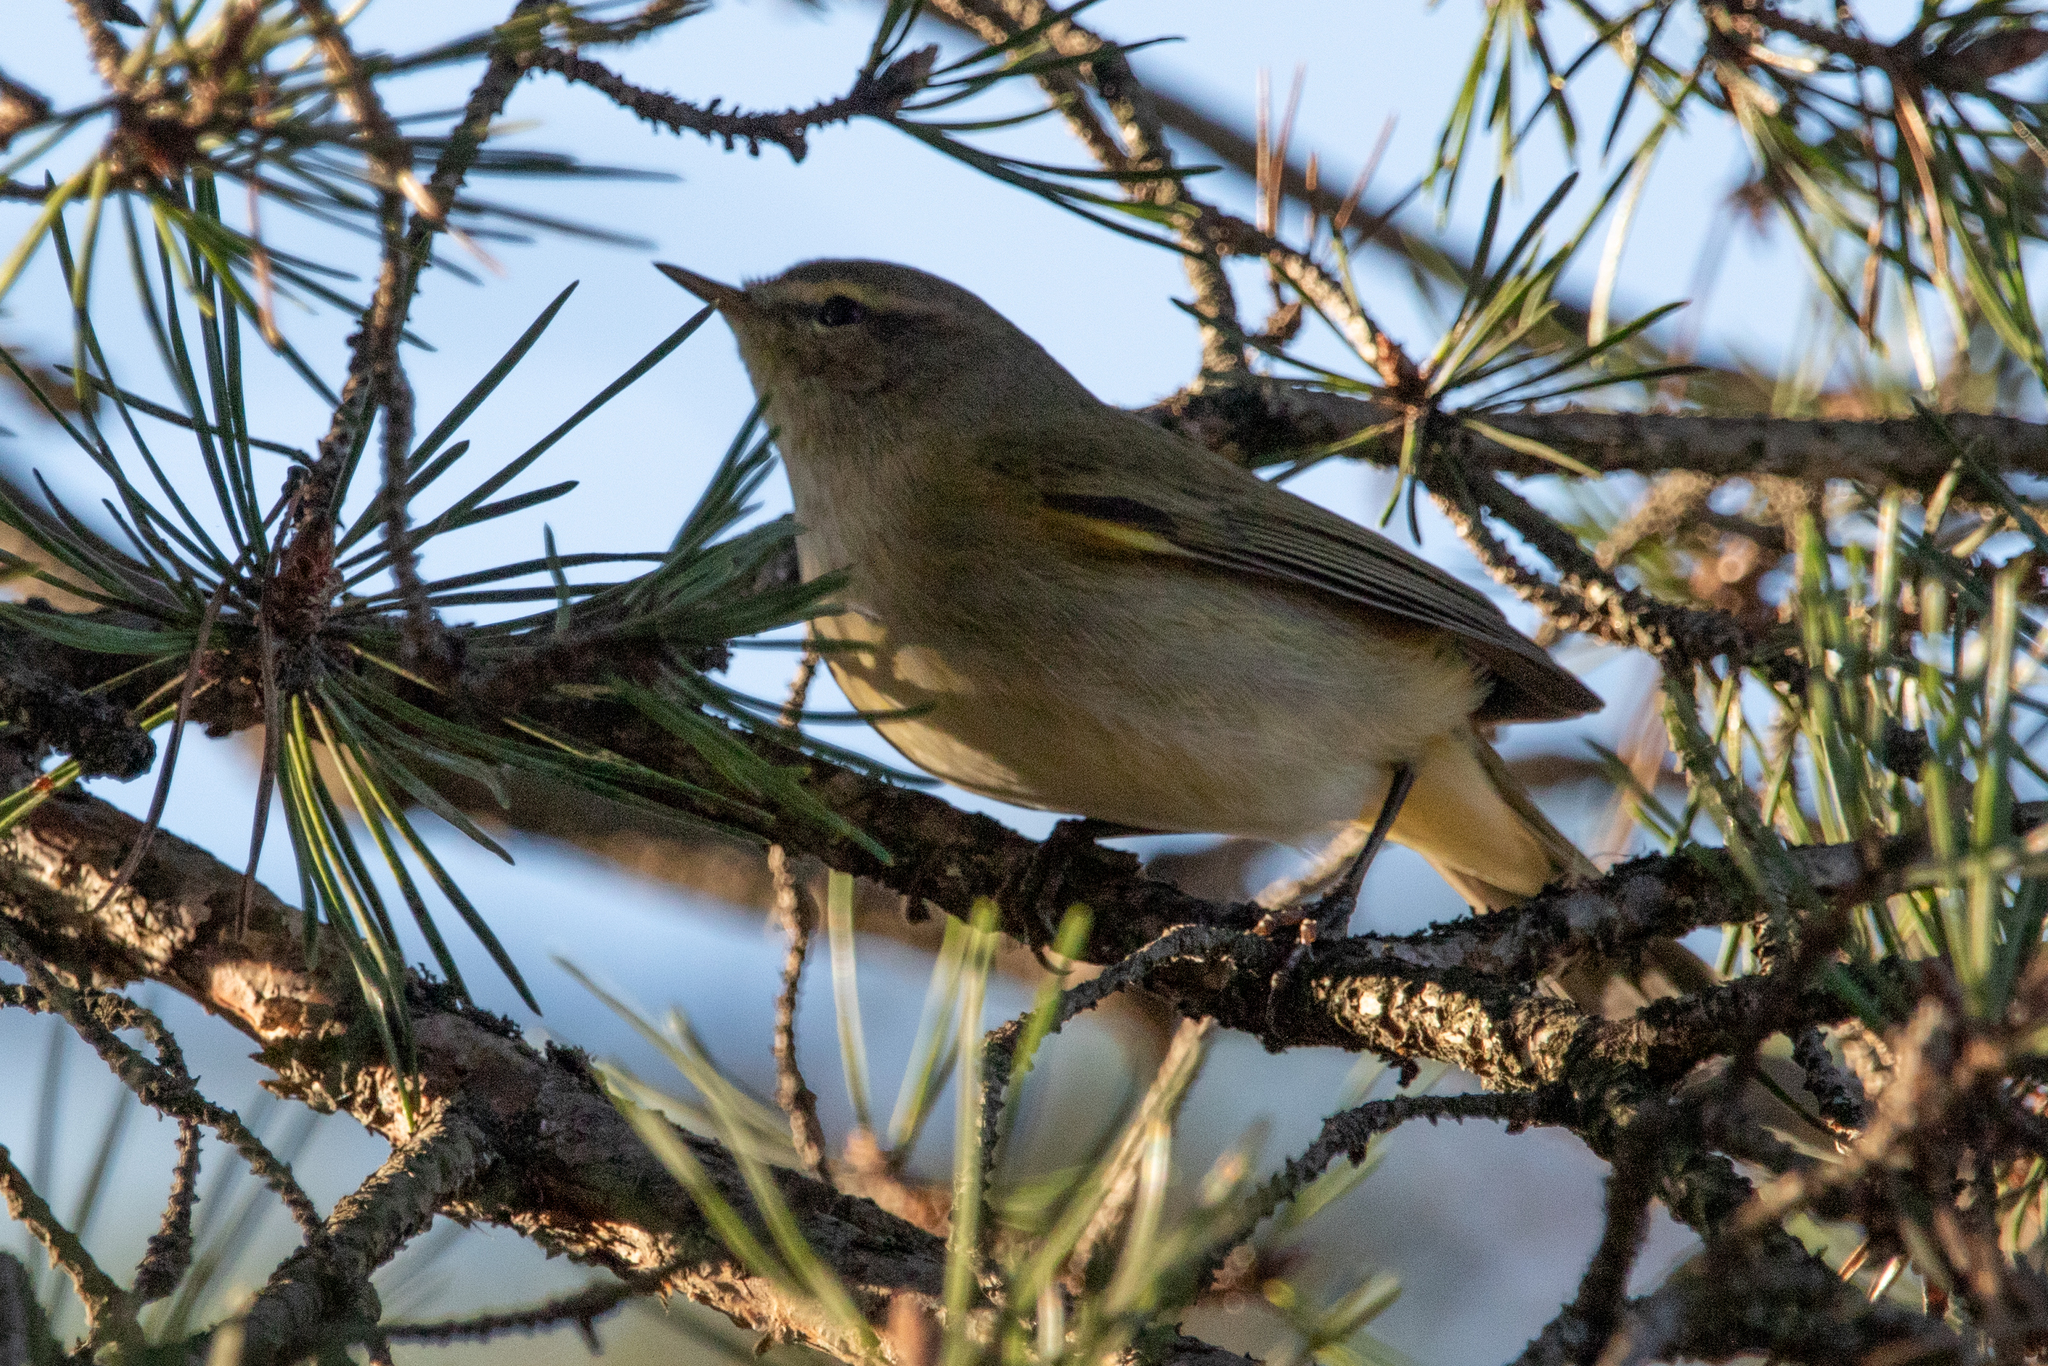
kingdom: Animalia
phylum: Chordata
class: Aves
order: Passeriformes
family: Phylloscopidae
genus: Phylloscopus
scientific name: Phylloscopus collybita
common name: Common chiffchaff
